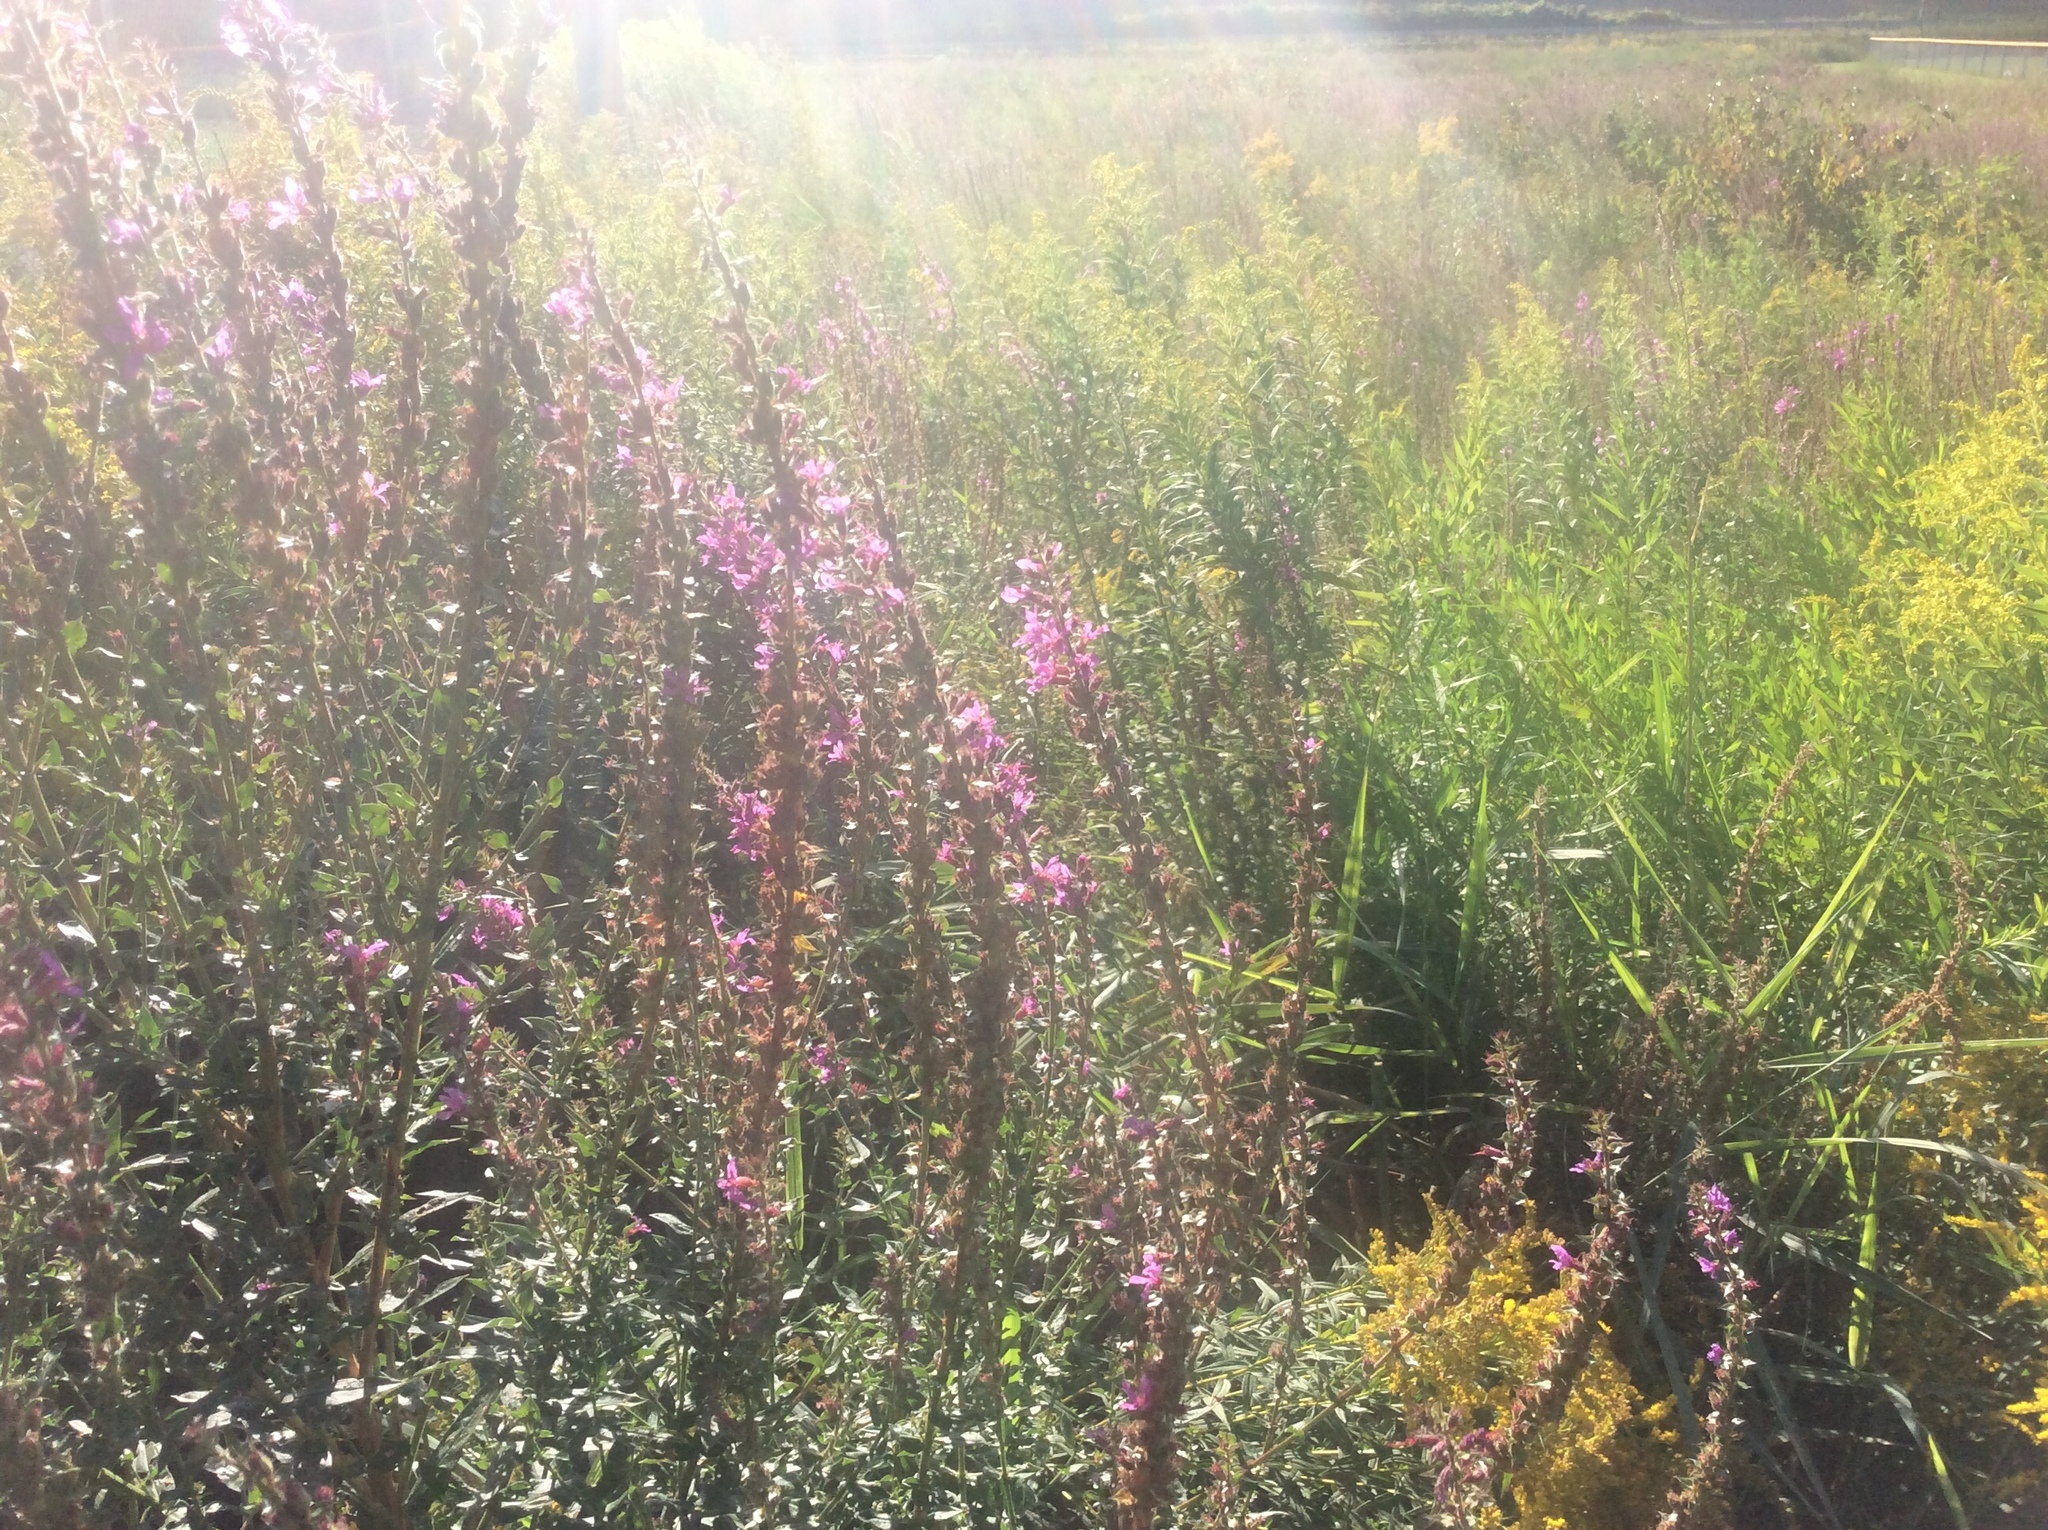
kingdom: Plantae
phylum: Tracheophyta
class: Magnoliopsida
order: Myrtales
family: Lythraceae
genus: Lythrum
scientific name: Lythrum salicaria
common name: Purple loosestrife
